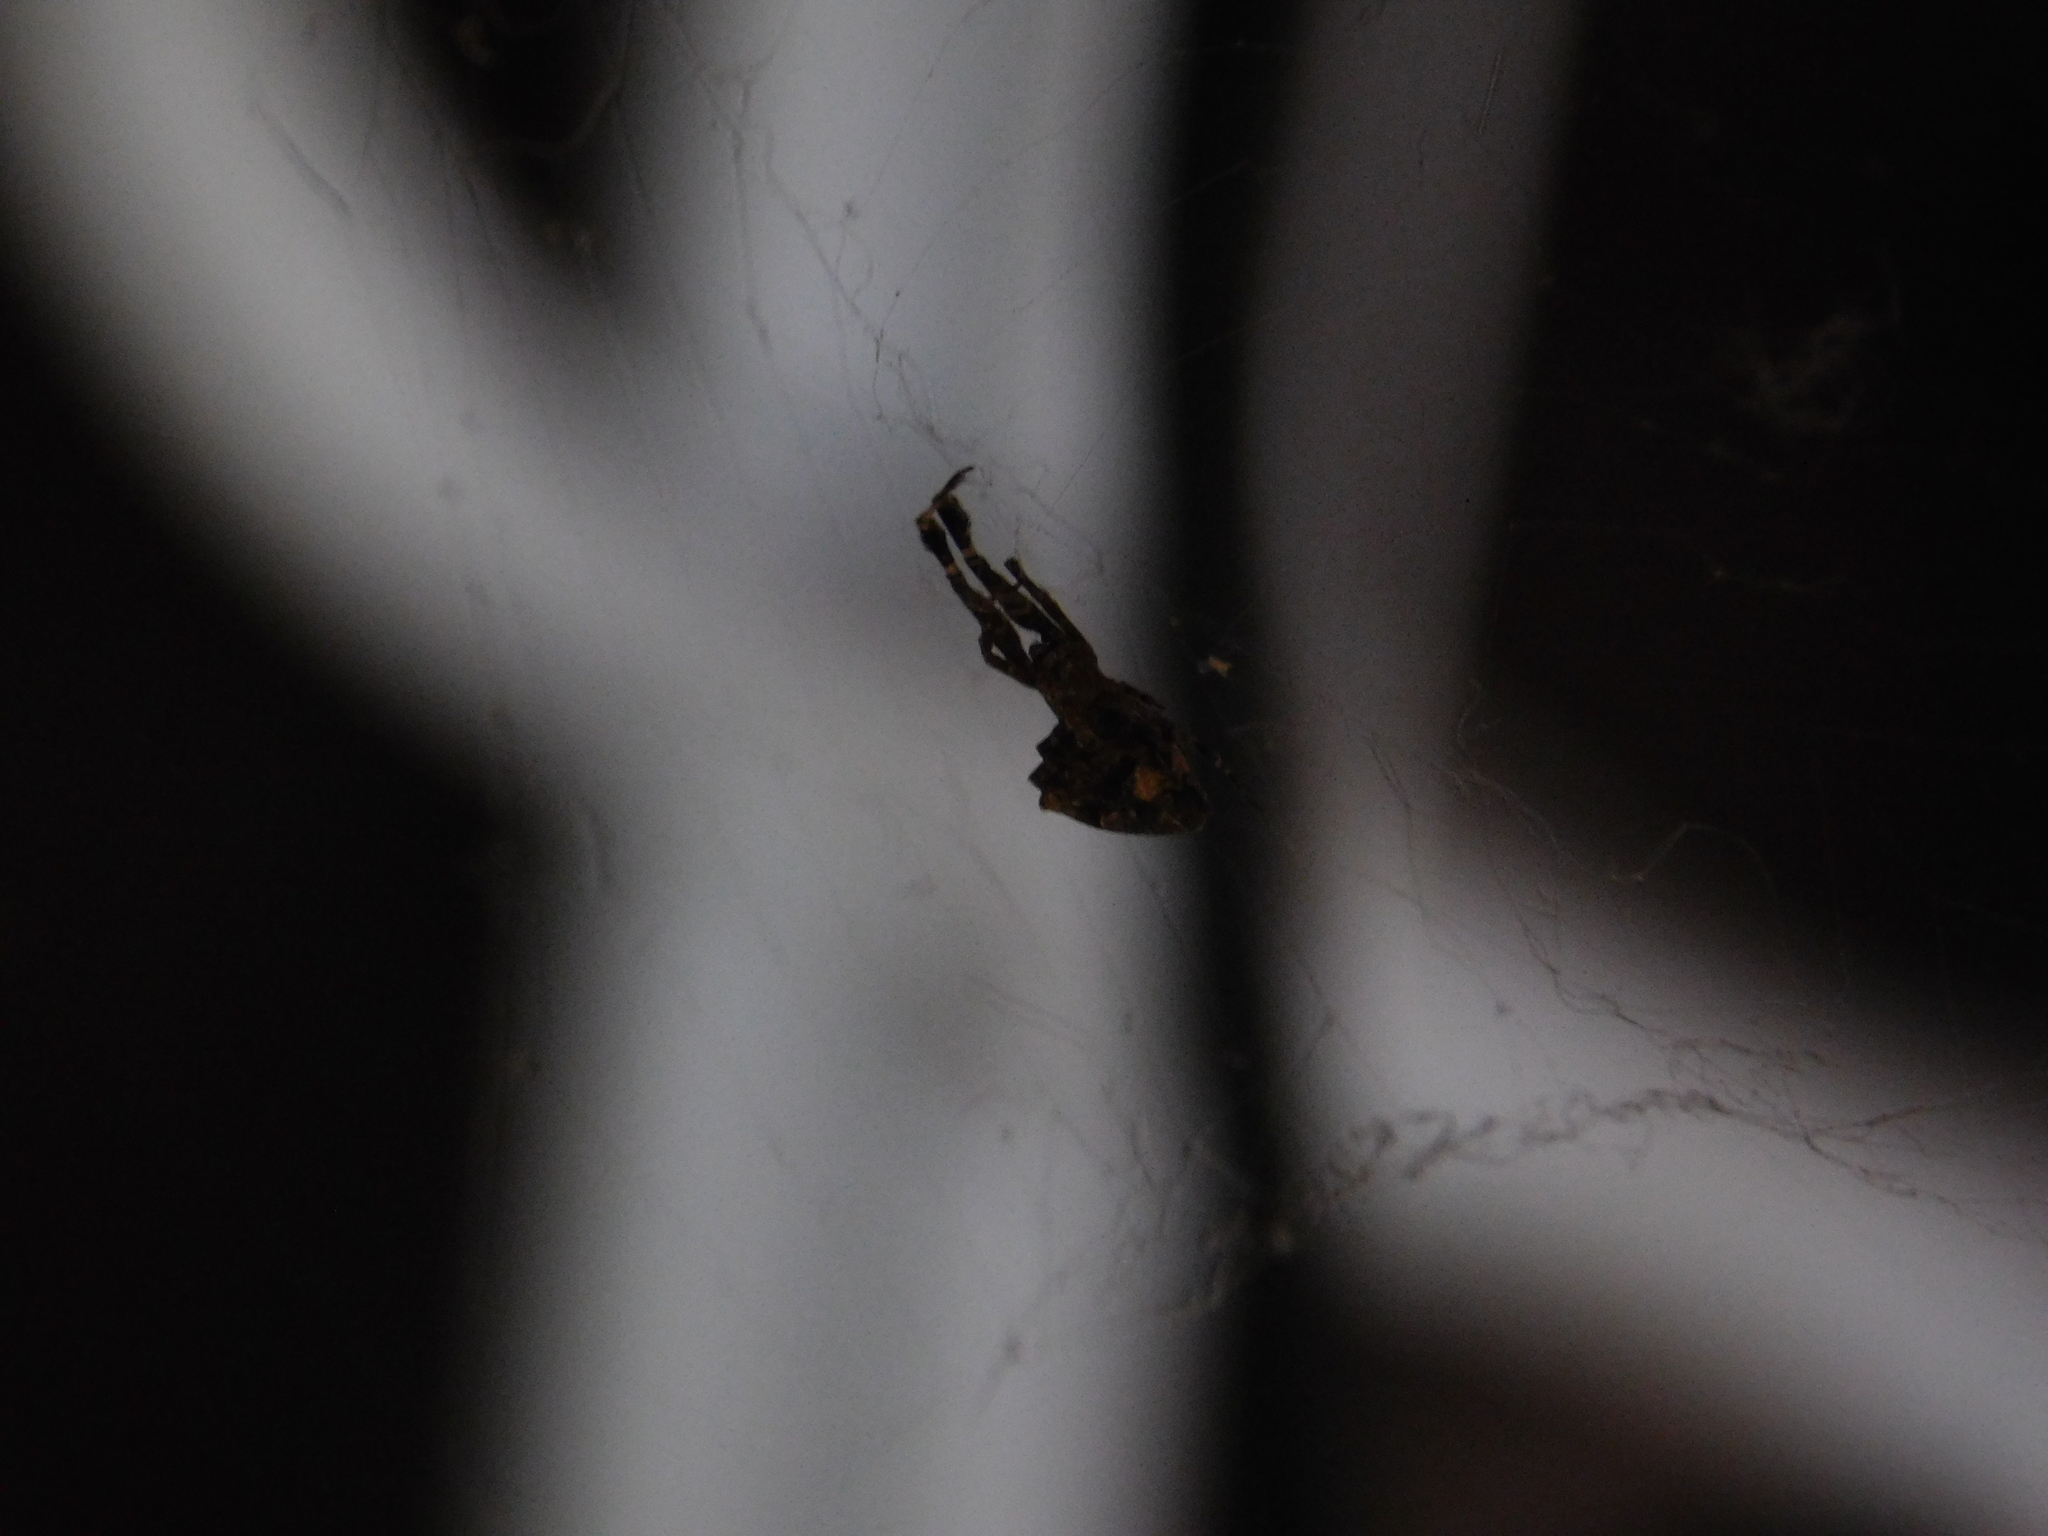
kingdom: Animalia
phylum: Arthropoda
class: Arachnida
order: Araneae
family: Uloboridae
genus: Uloborus
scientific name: Uloborus plumipes
